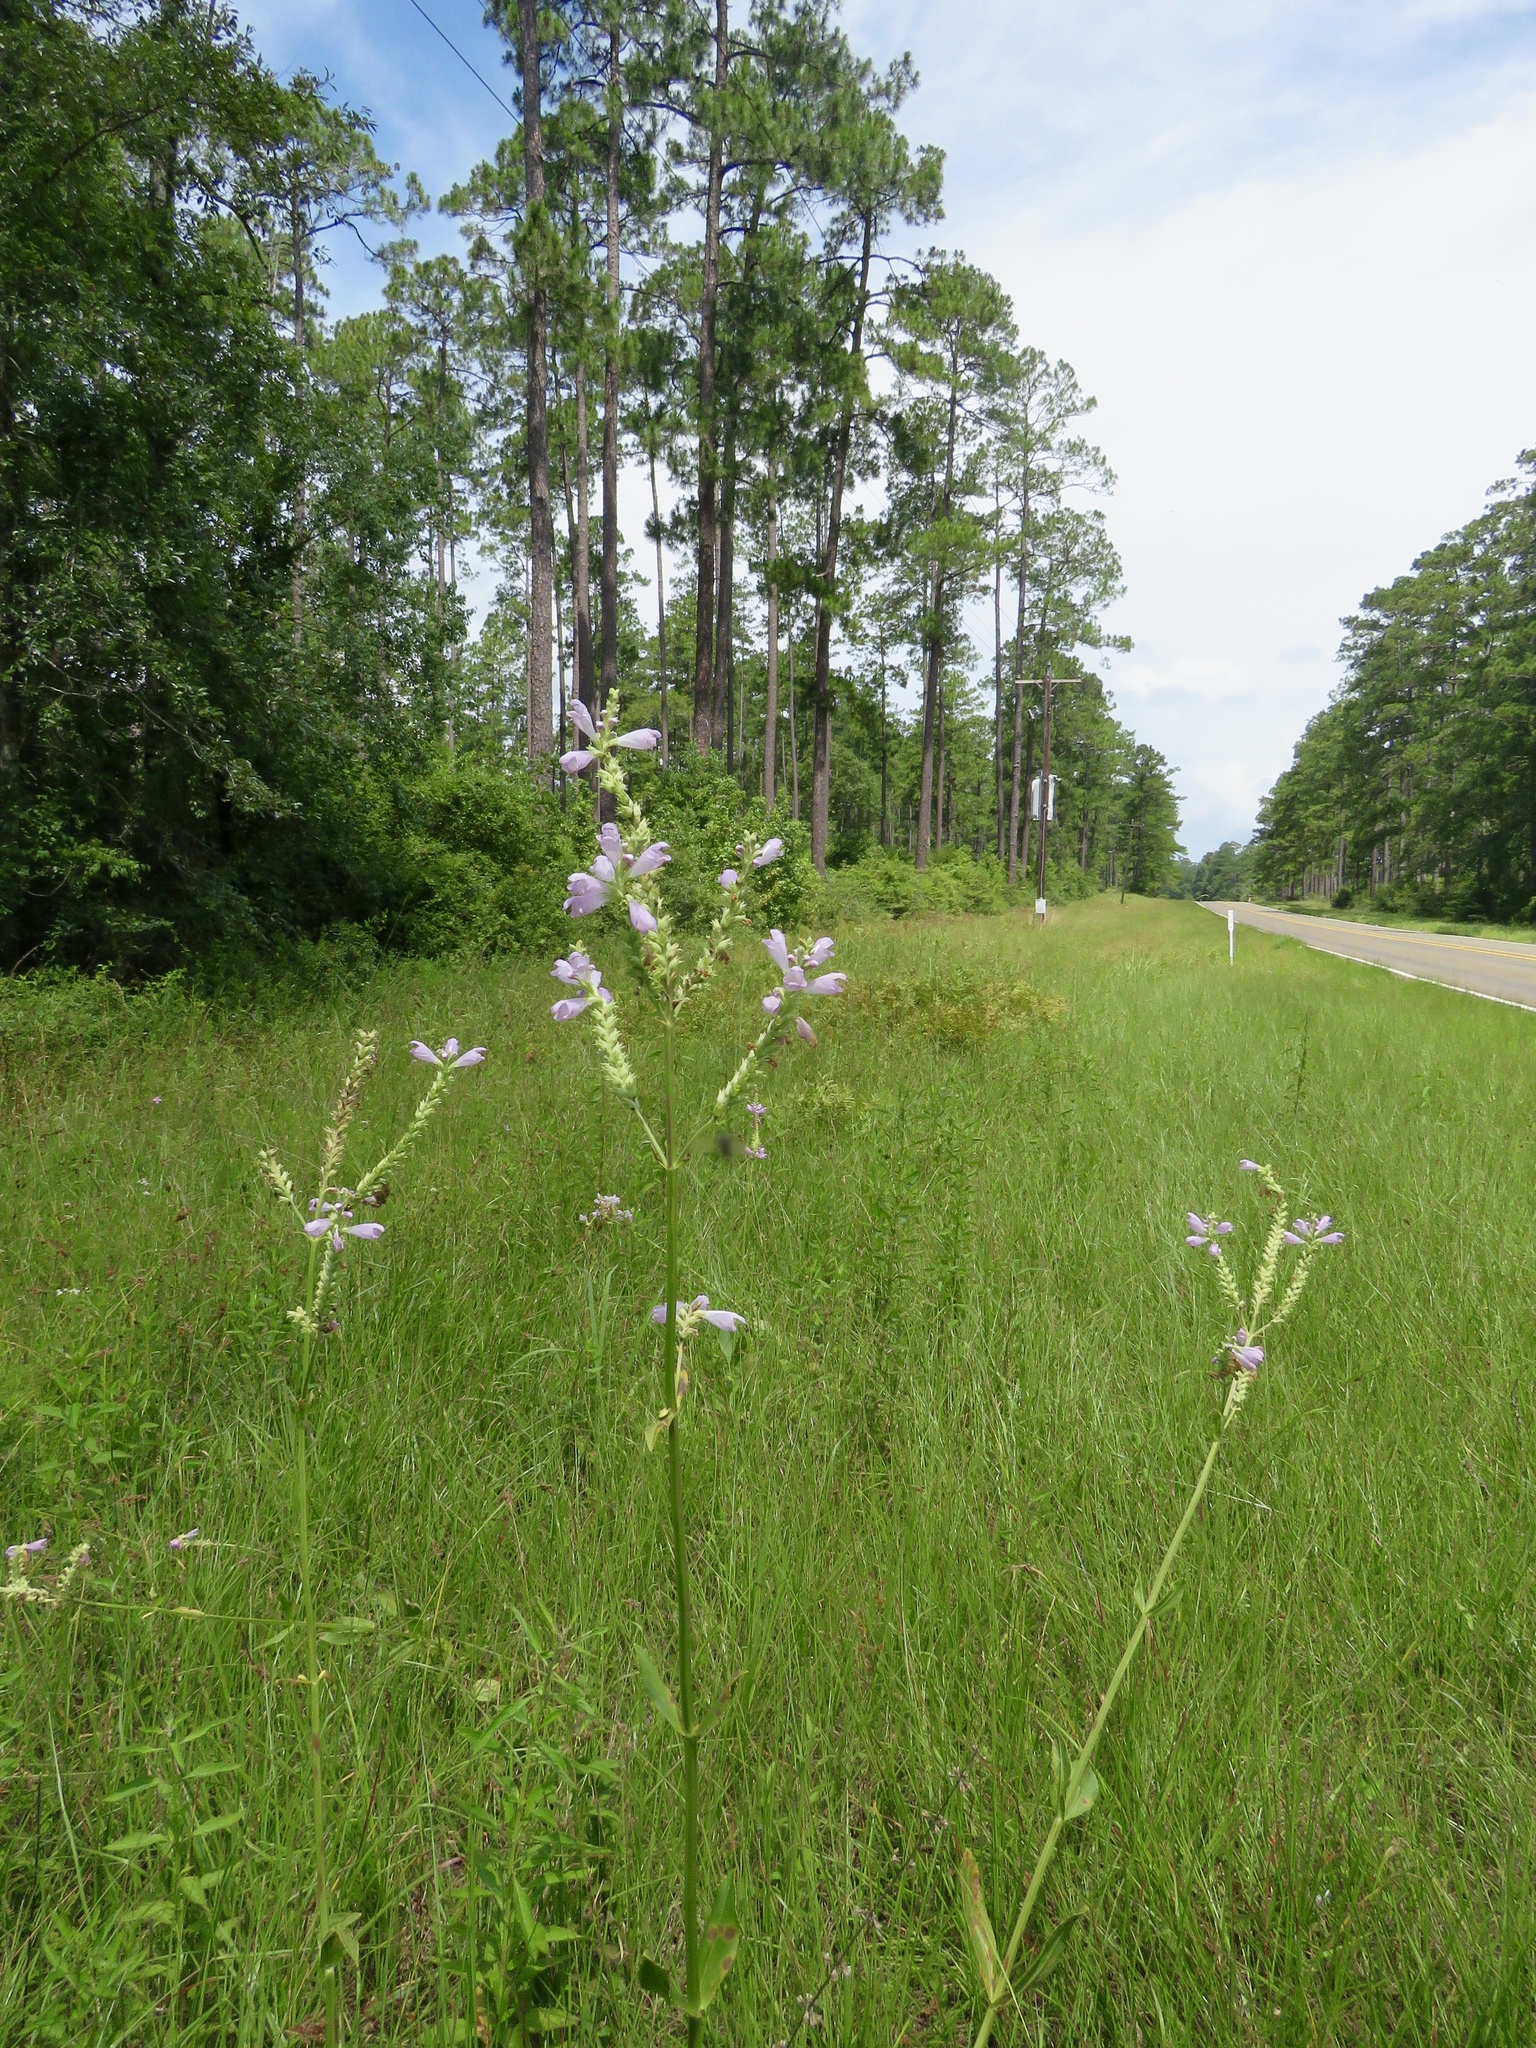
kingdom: Plantae
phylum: Tracheophyta
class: Magnoliopsida
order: Lamiales
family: Lamiaceae
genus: Physostegia
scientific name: Physostegia digitalis
